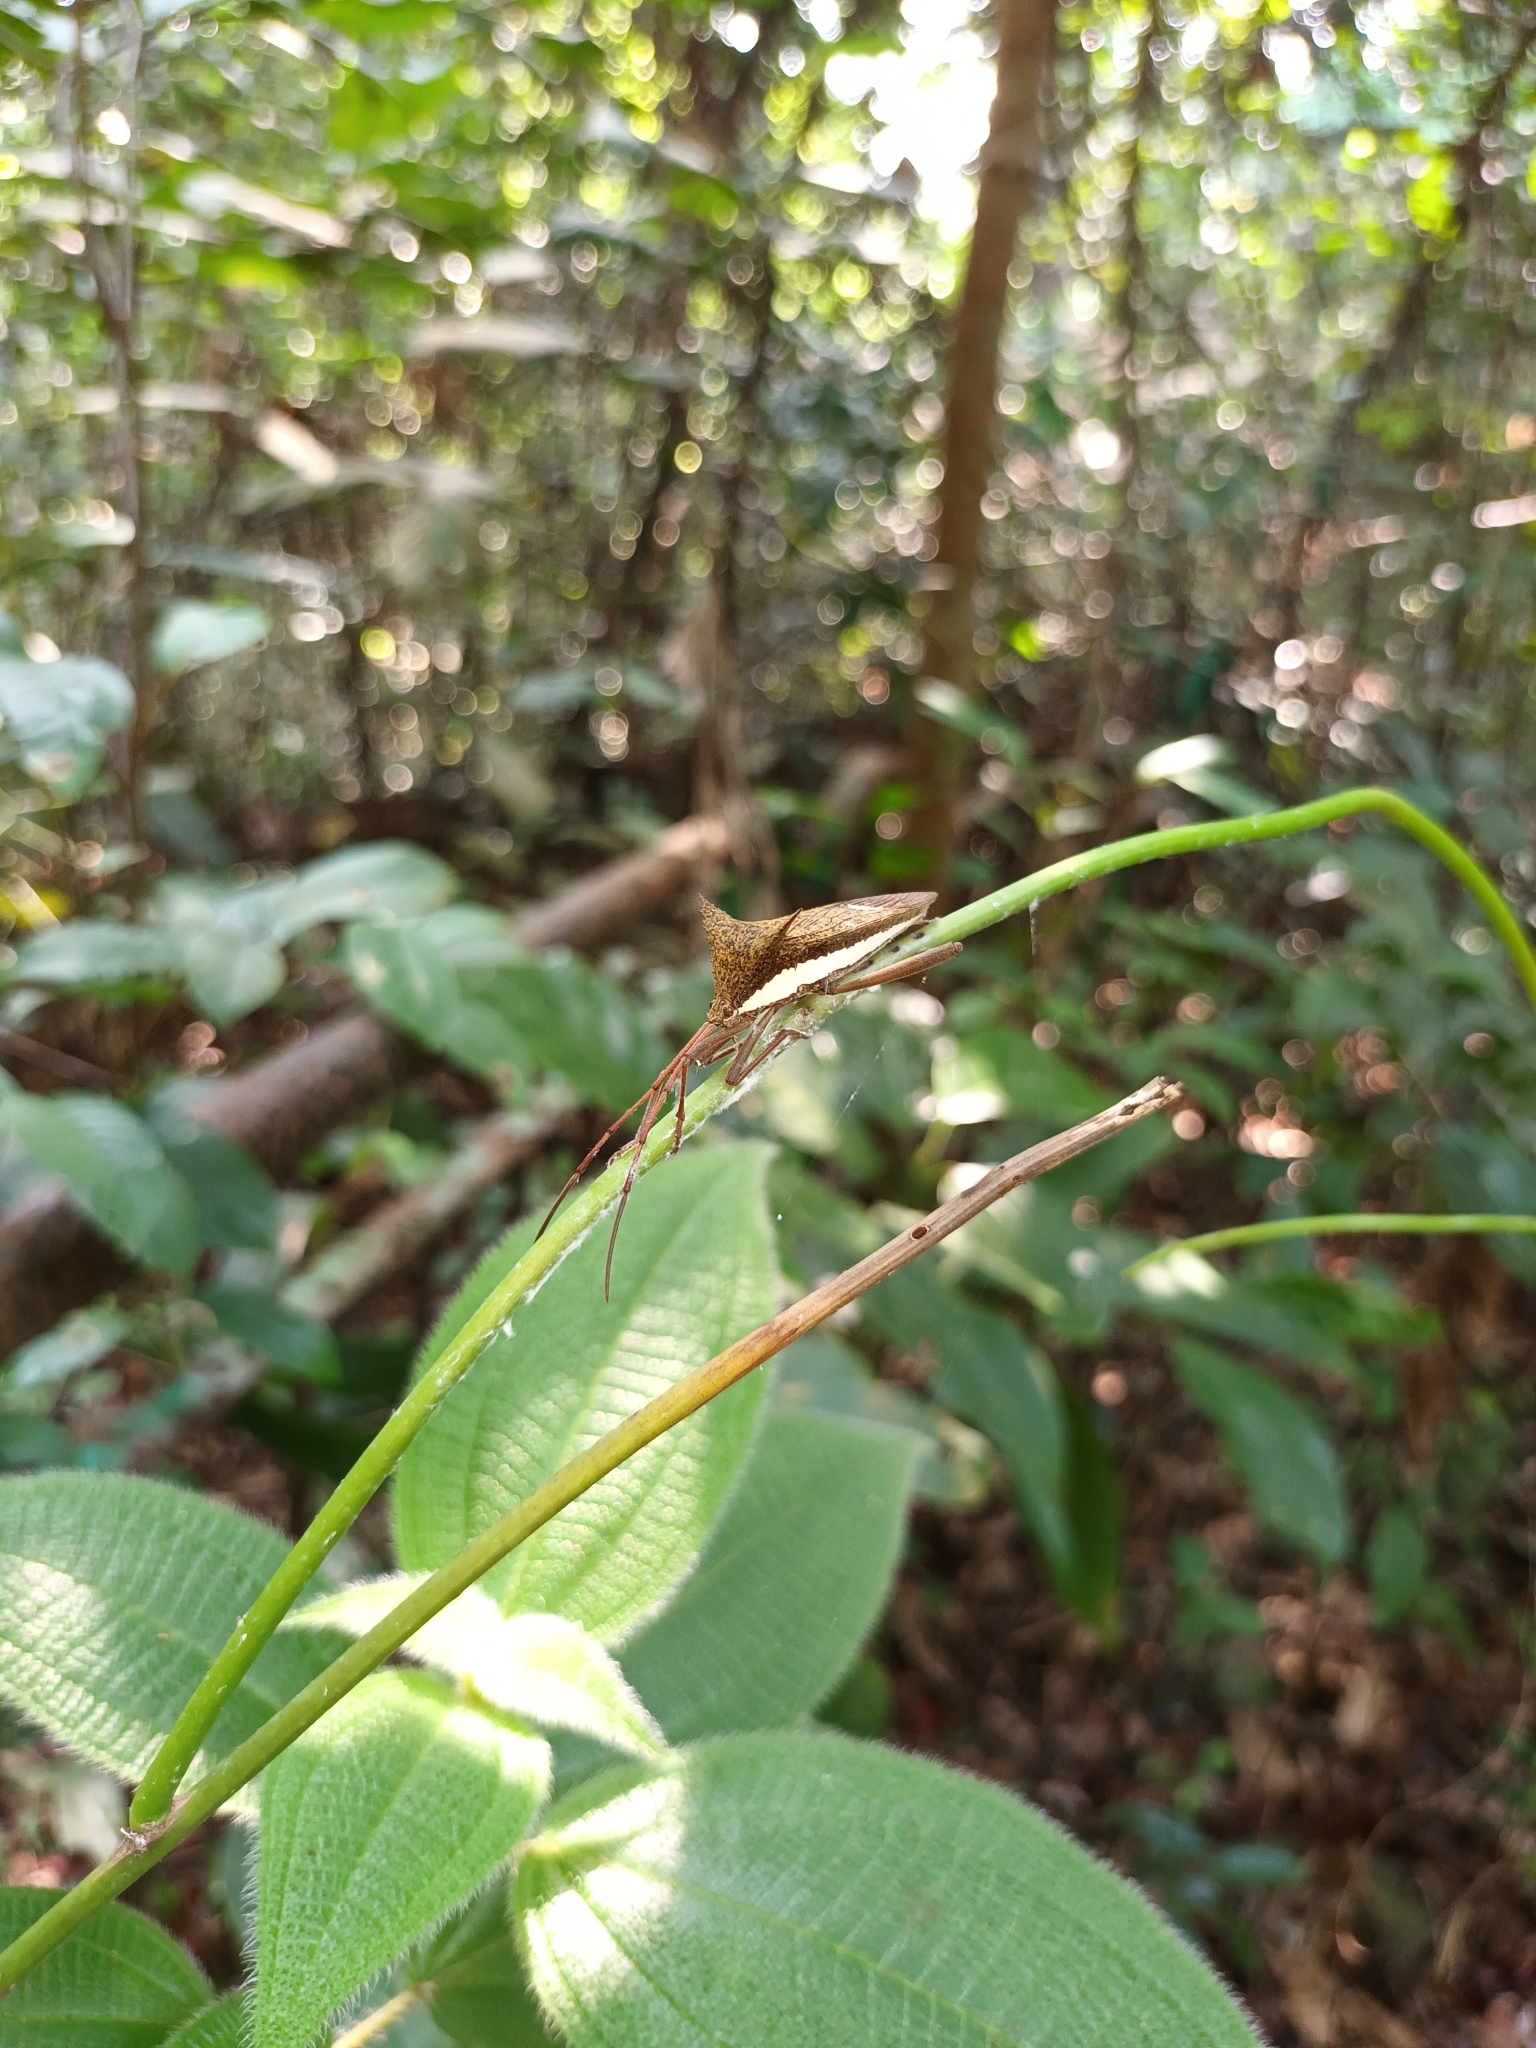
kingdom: Animalia
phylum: Arthropoda
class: Insecta
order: Hemiptera
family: Coreidae
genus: Aspilosterna
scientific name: Aspilosterna albovittata
